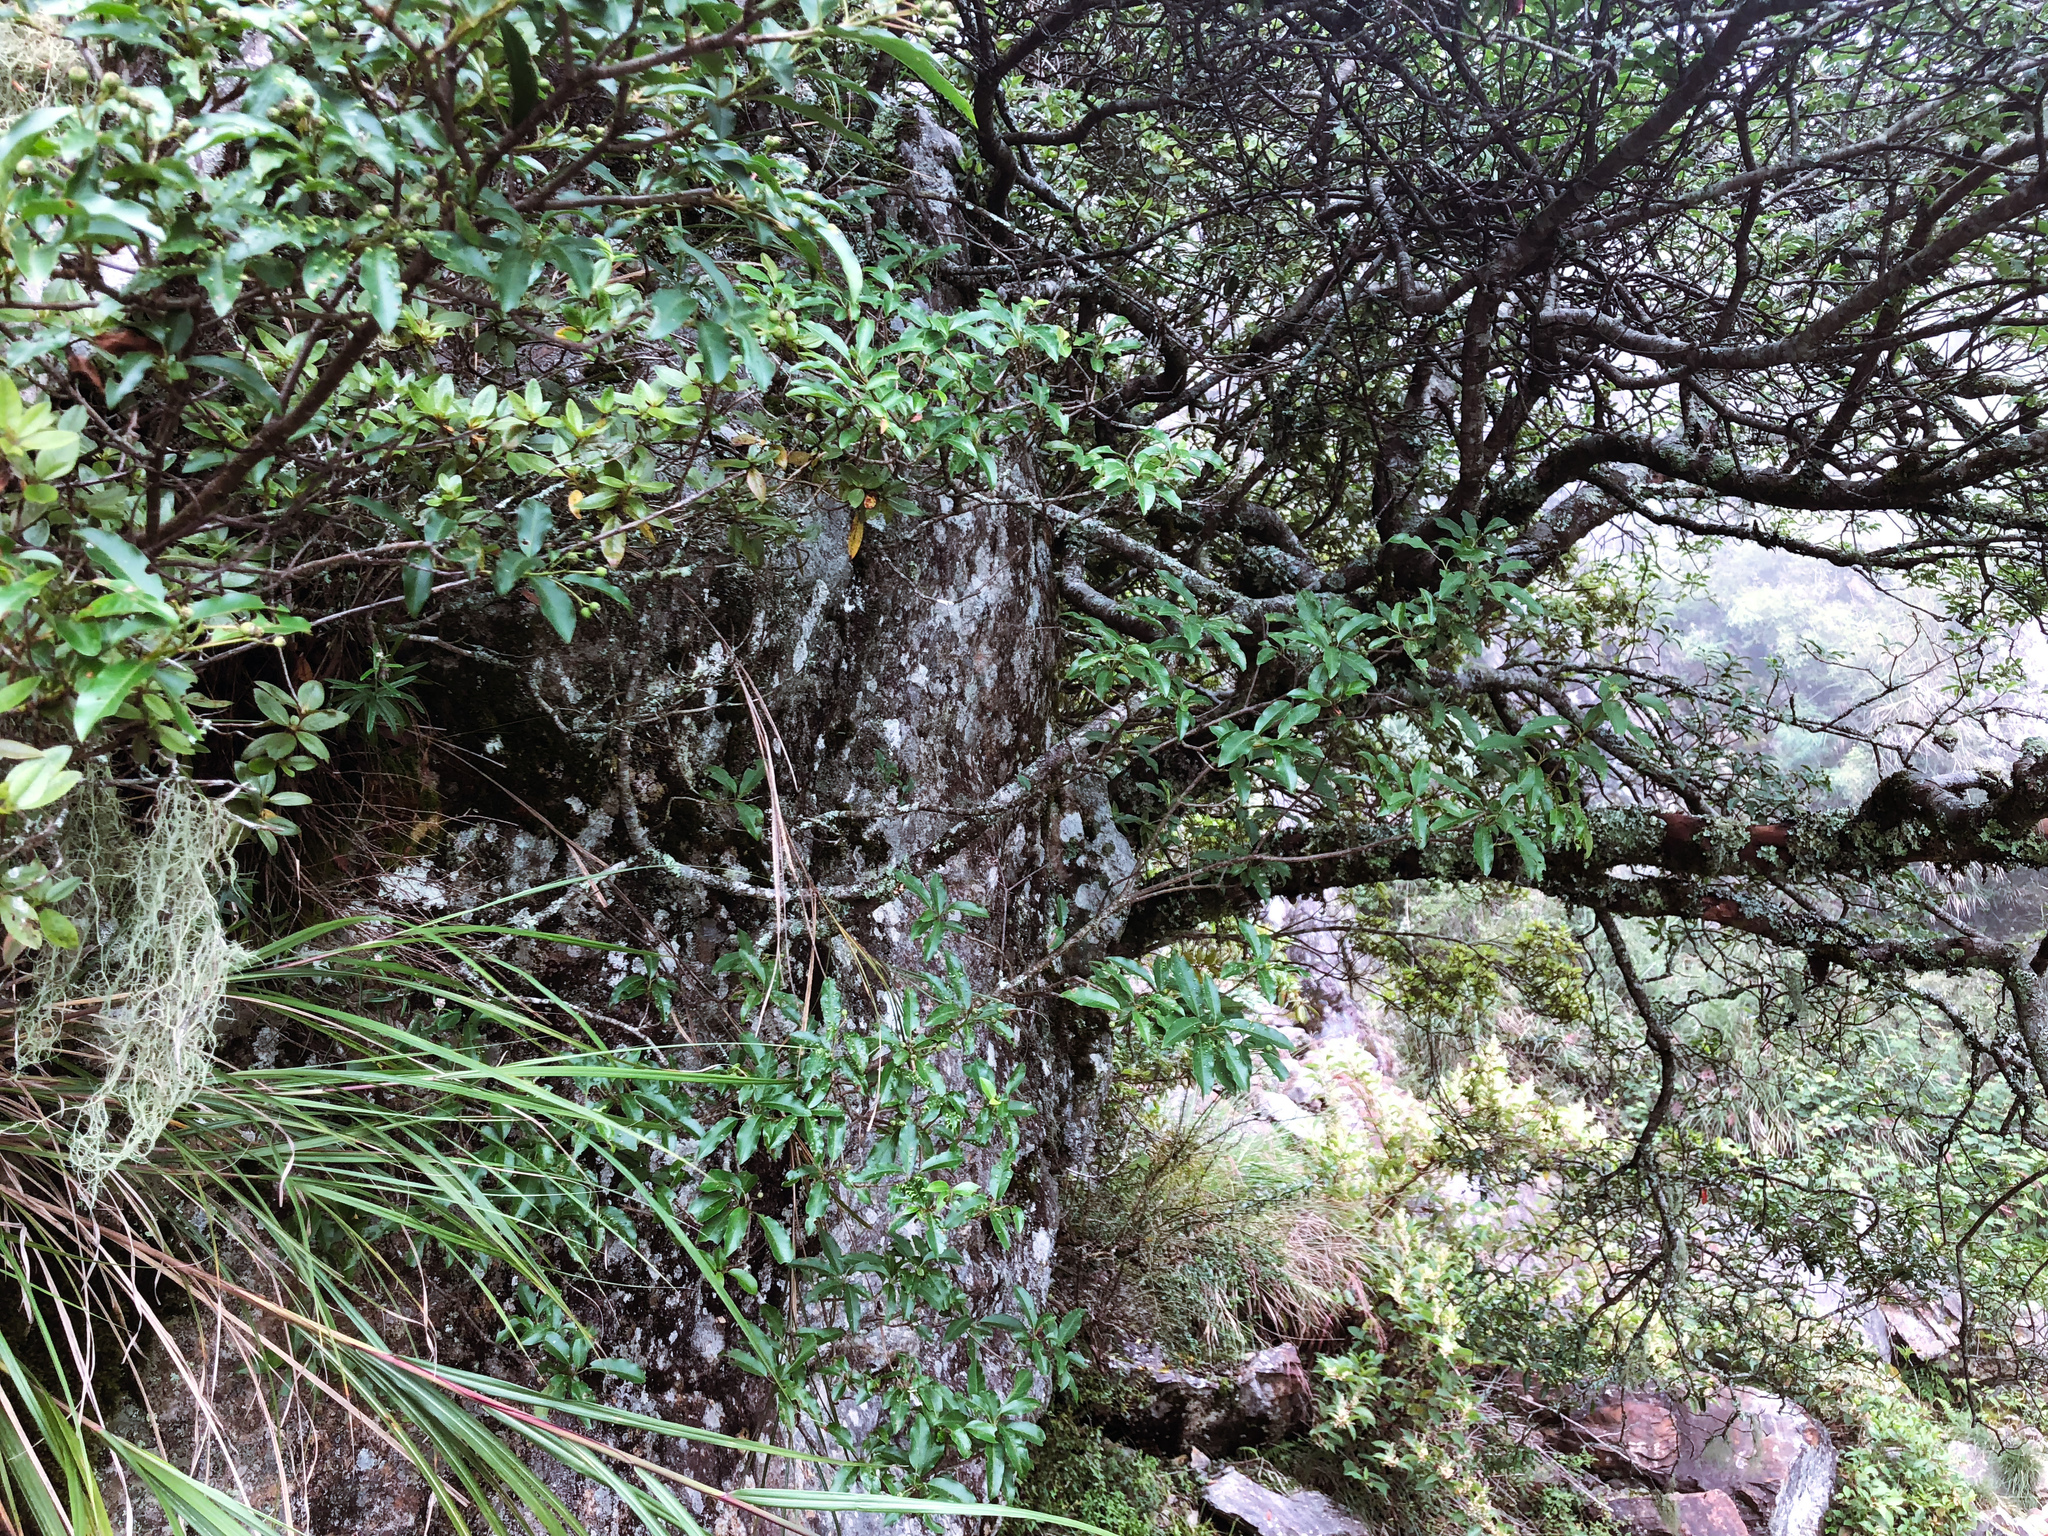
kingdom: Plantae
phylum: Tracheophyta
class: Magnoliopsida
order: Rosales
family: Rosaceae
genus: Stranvaesia
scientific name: Stranvaesia davidiana
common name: Chinese photinia
